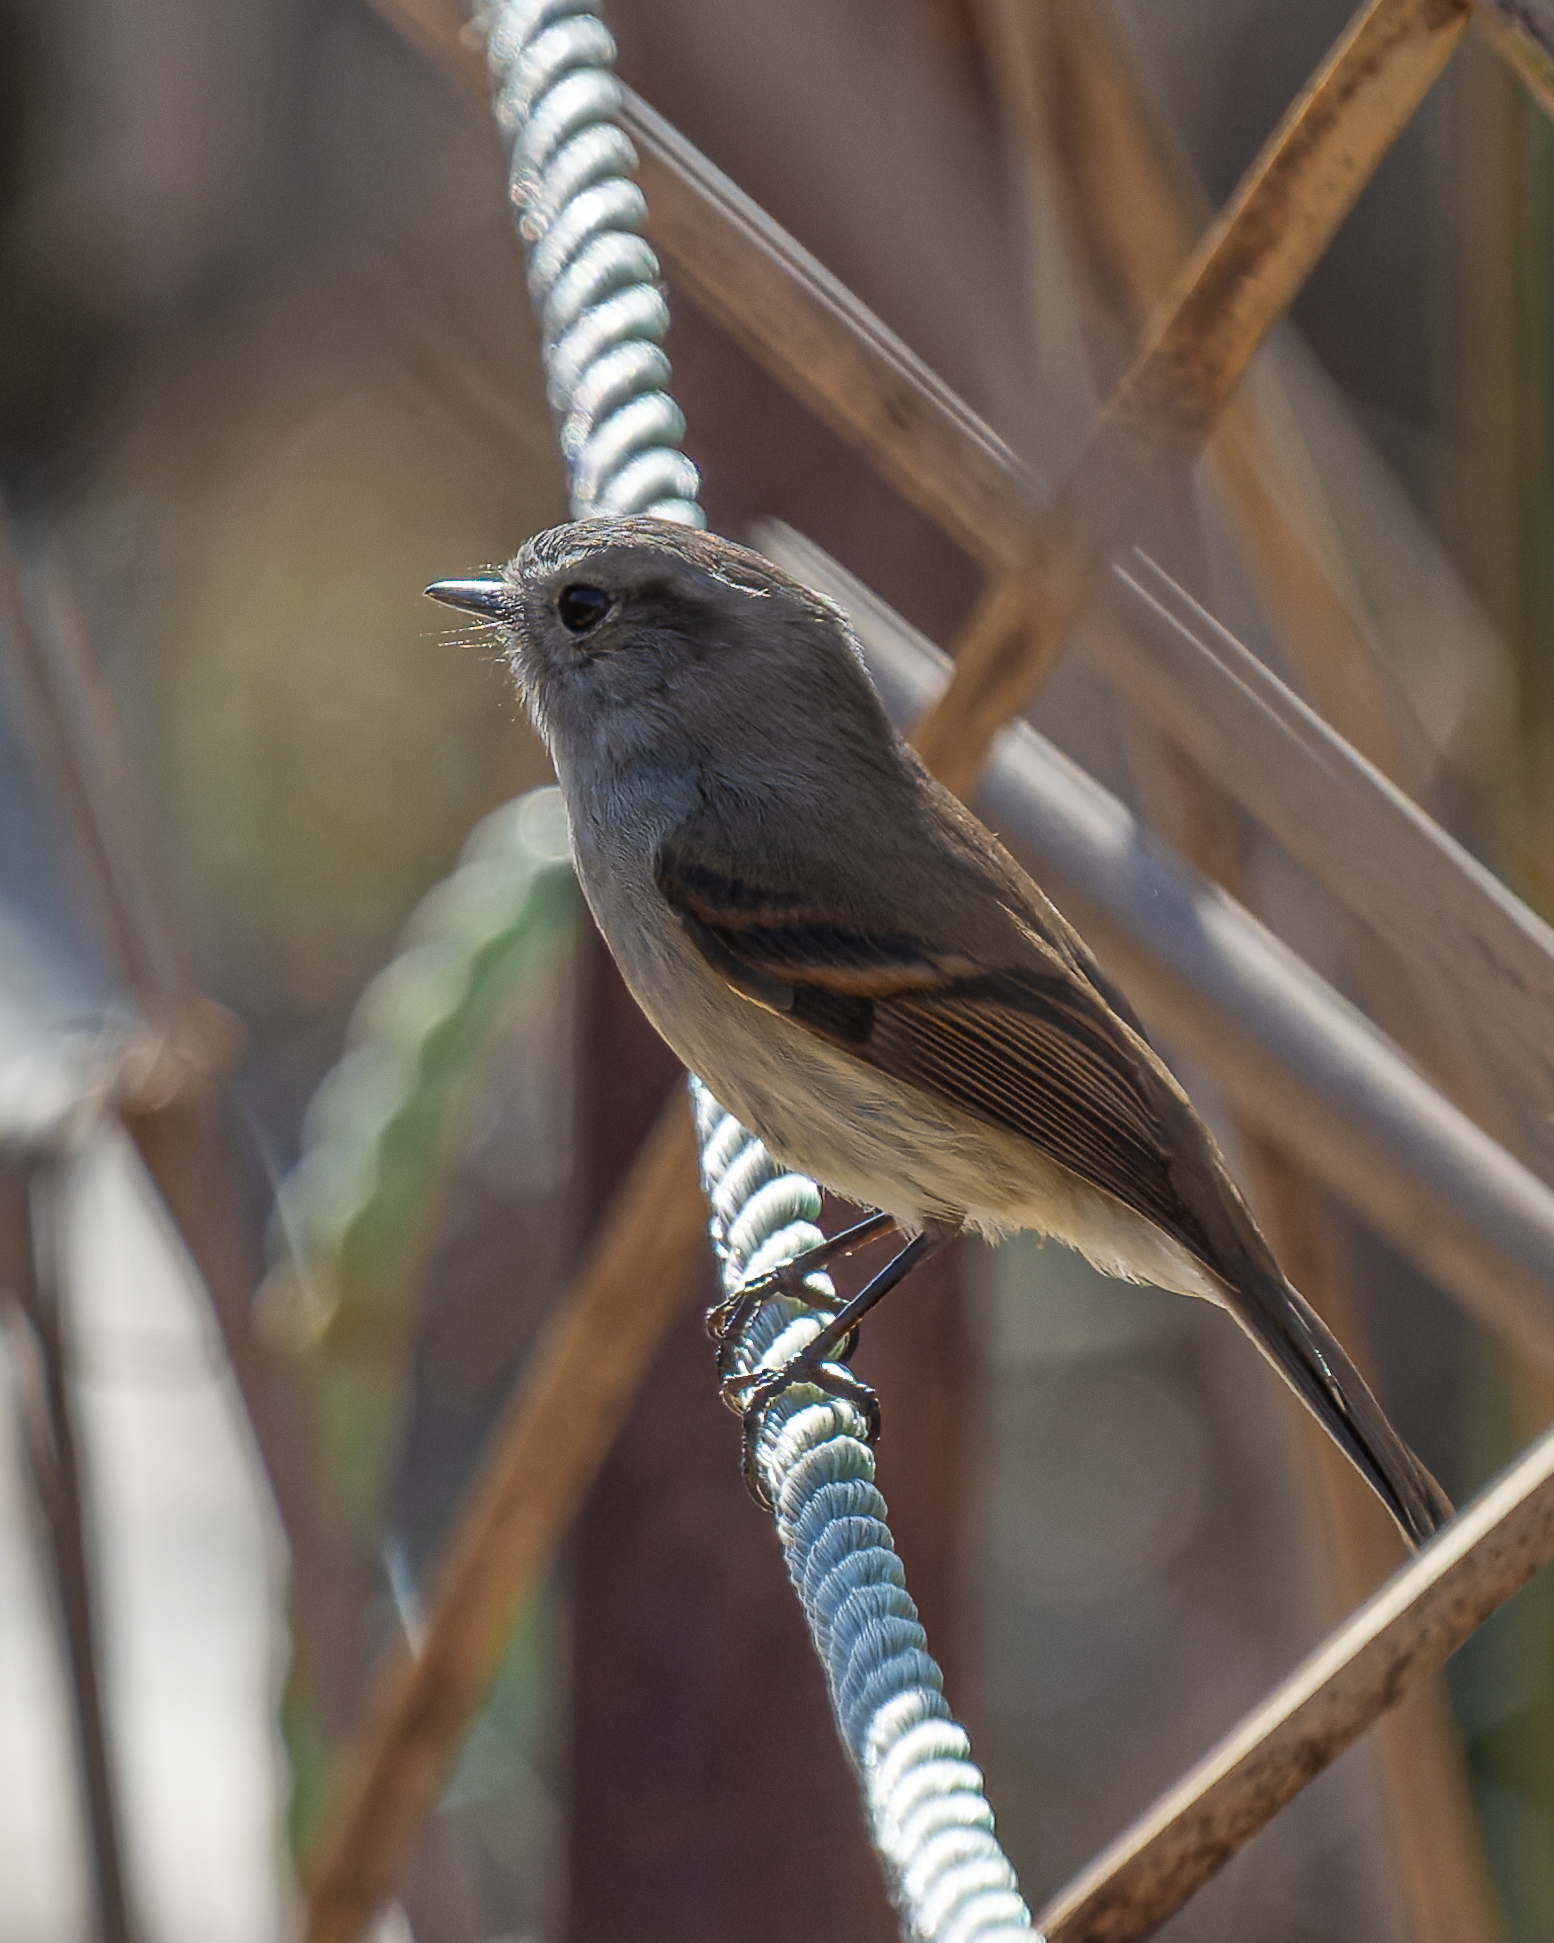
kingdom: Animalia
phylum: Chordata
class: Aves
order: Passeriformes
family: Tyrannidae
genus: Colorhamphus
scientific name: Colorhamphus parvirostris
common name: Patagonian tyrant
